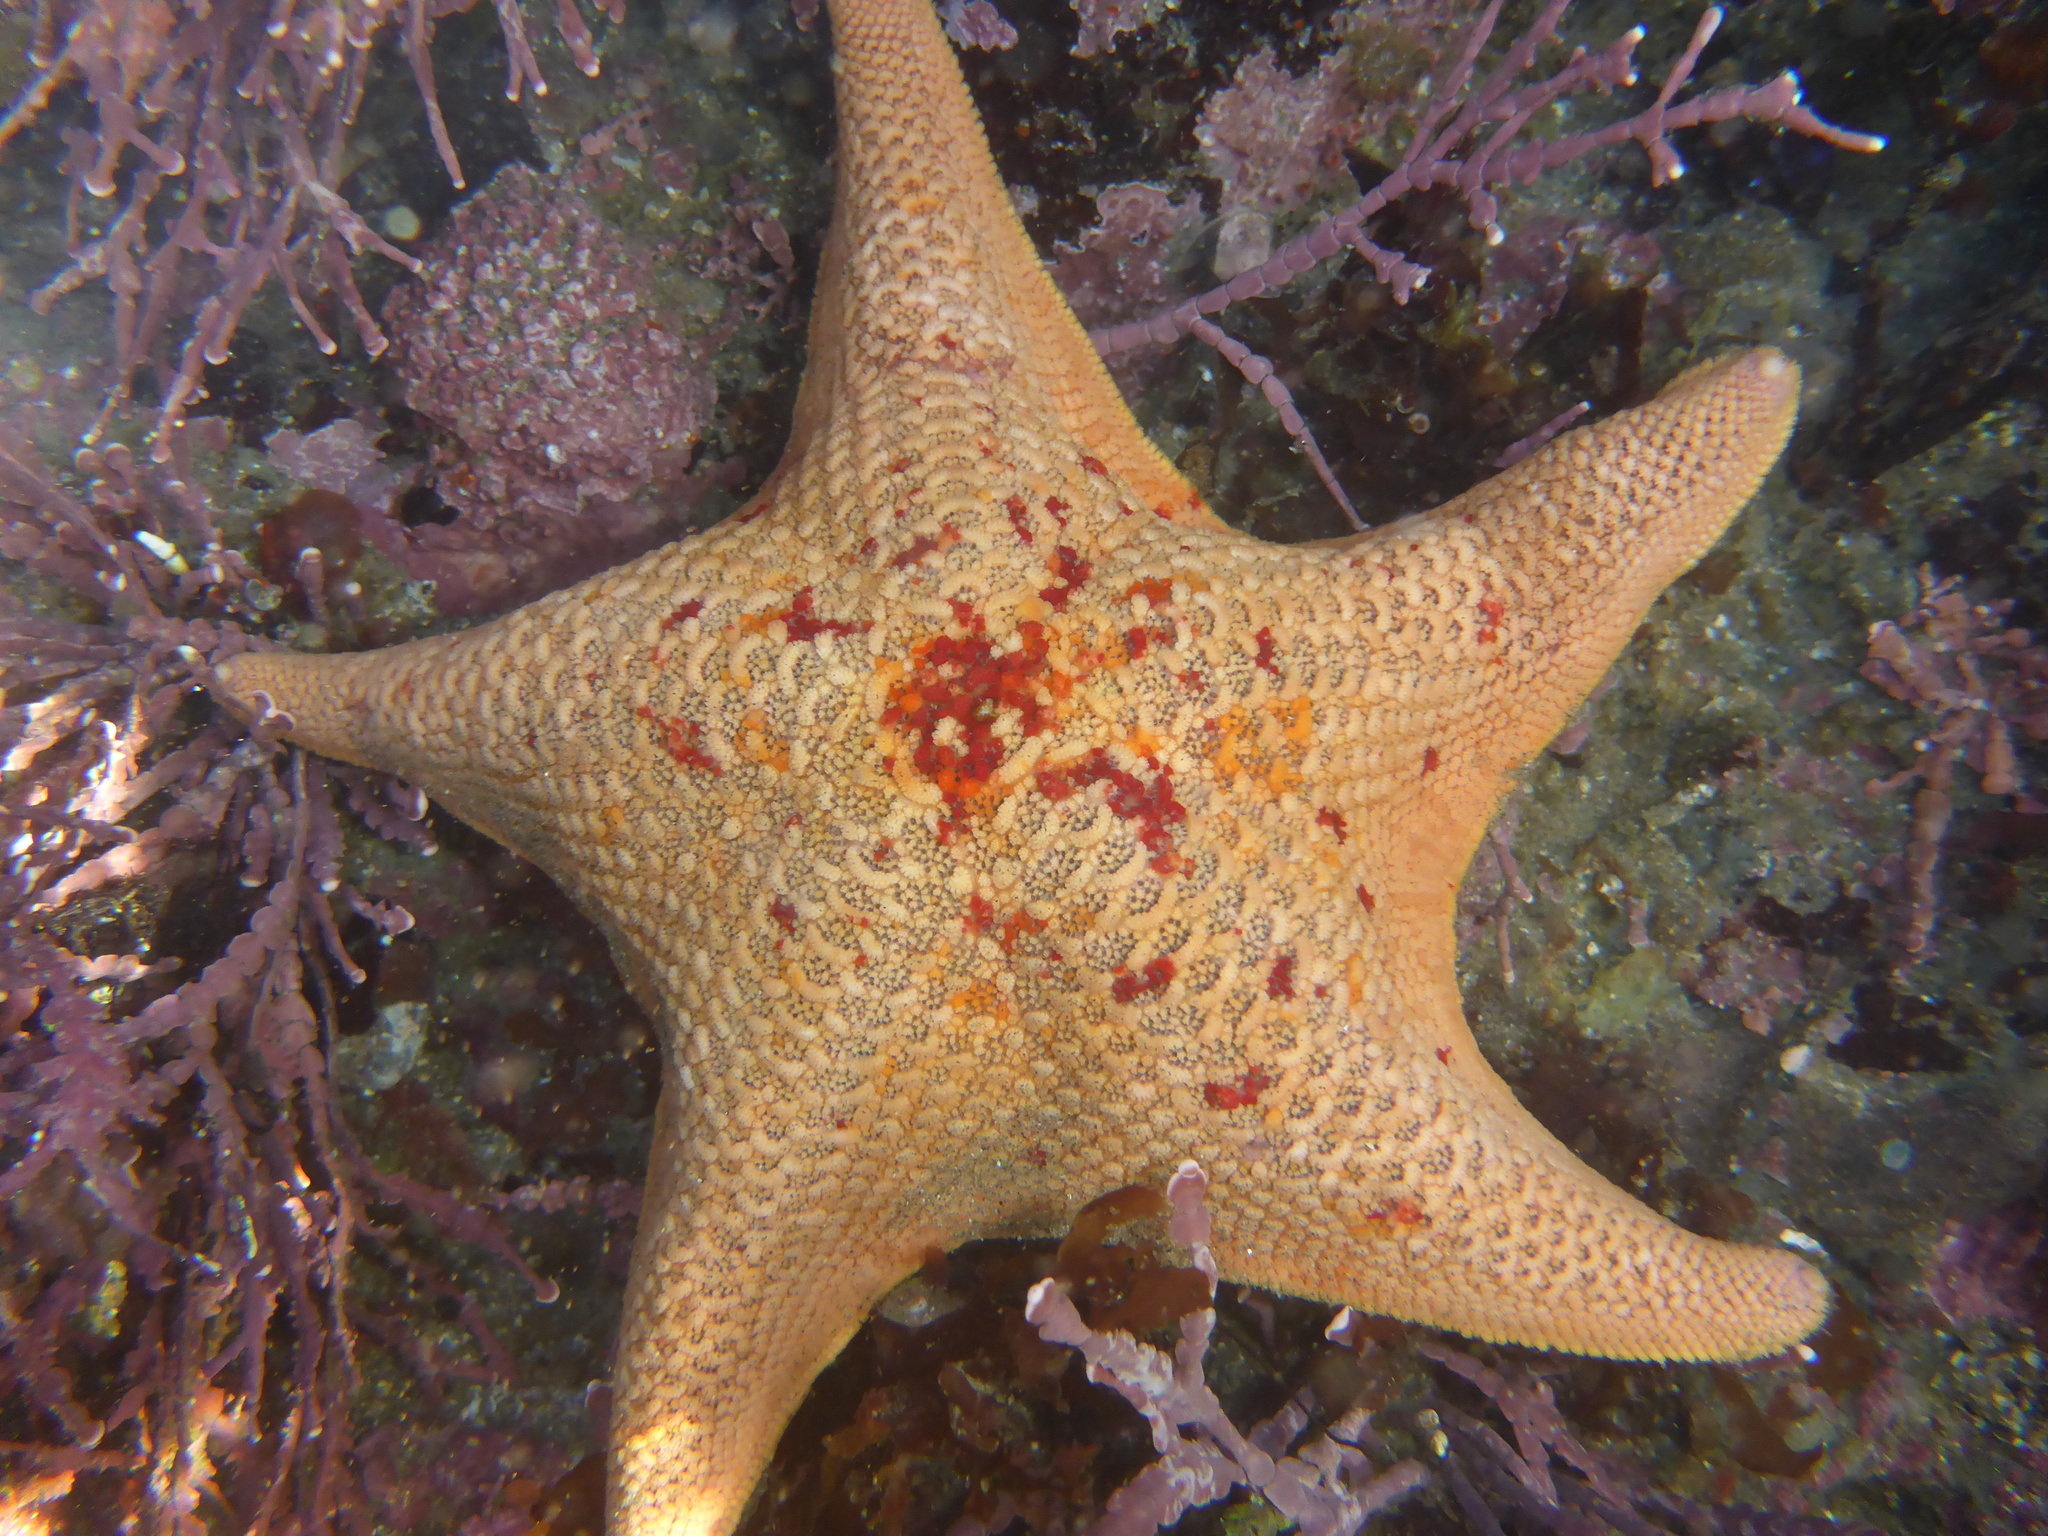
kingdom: Animalia
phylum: Annelida
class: Polychaeta
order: Phyllodocida
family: Hesionidae
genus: Oxydromus
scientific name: Oxydromus pugettensis
